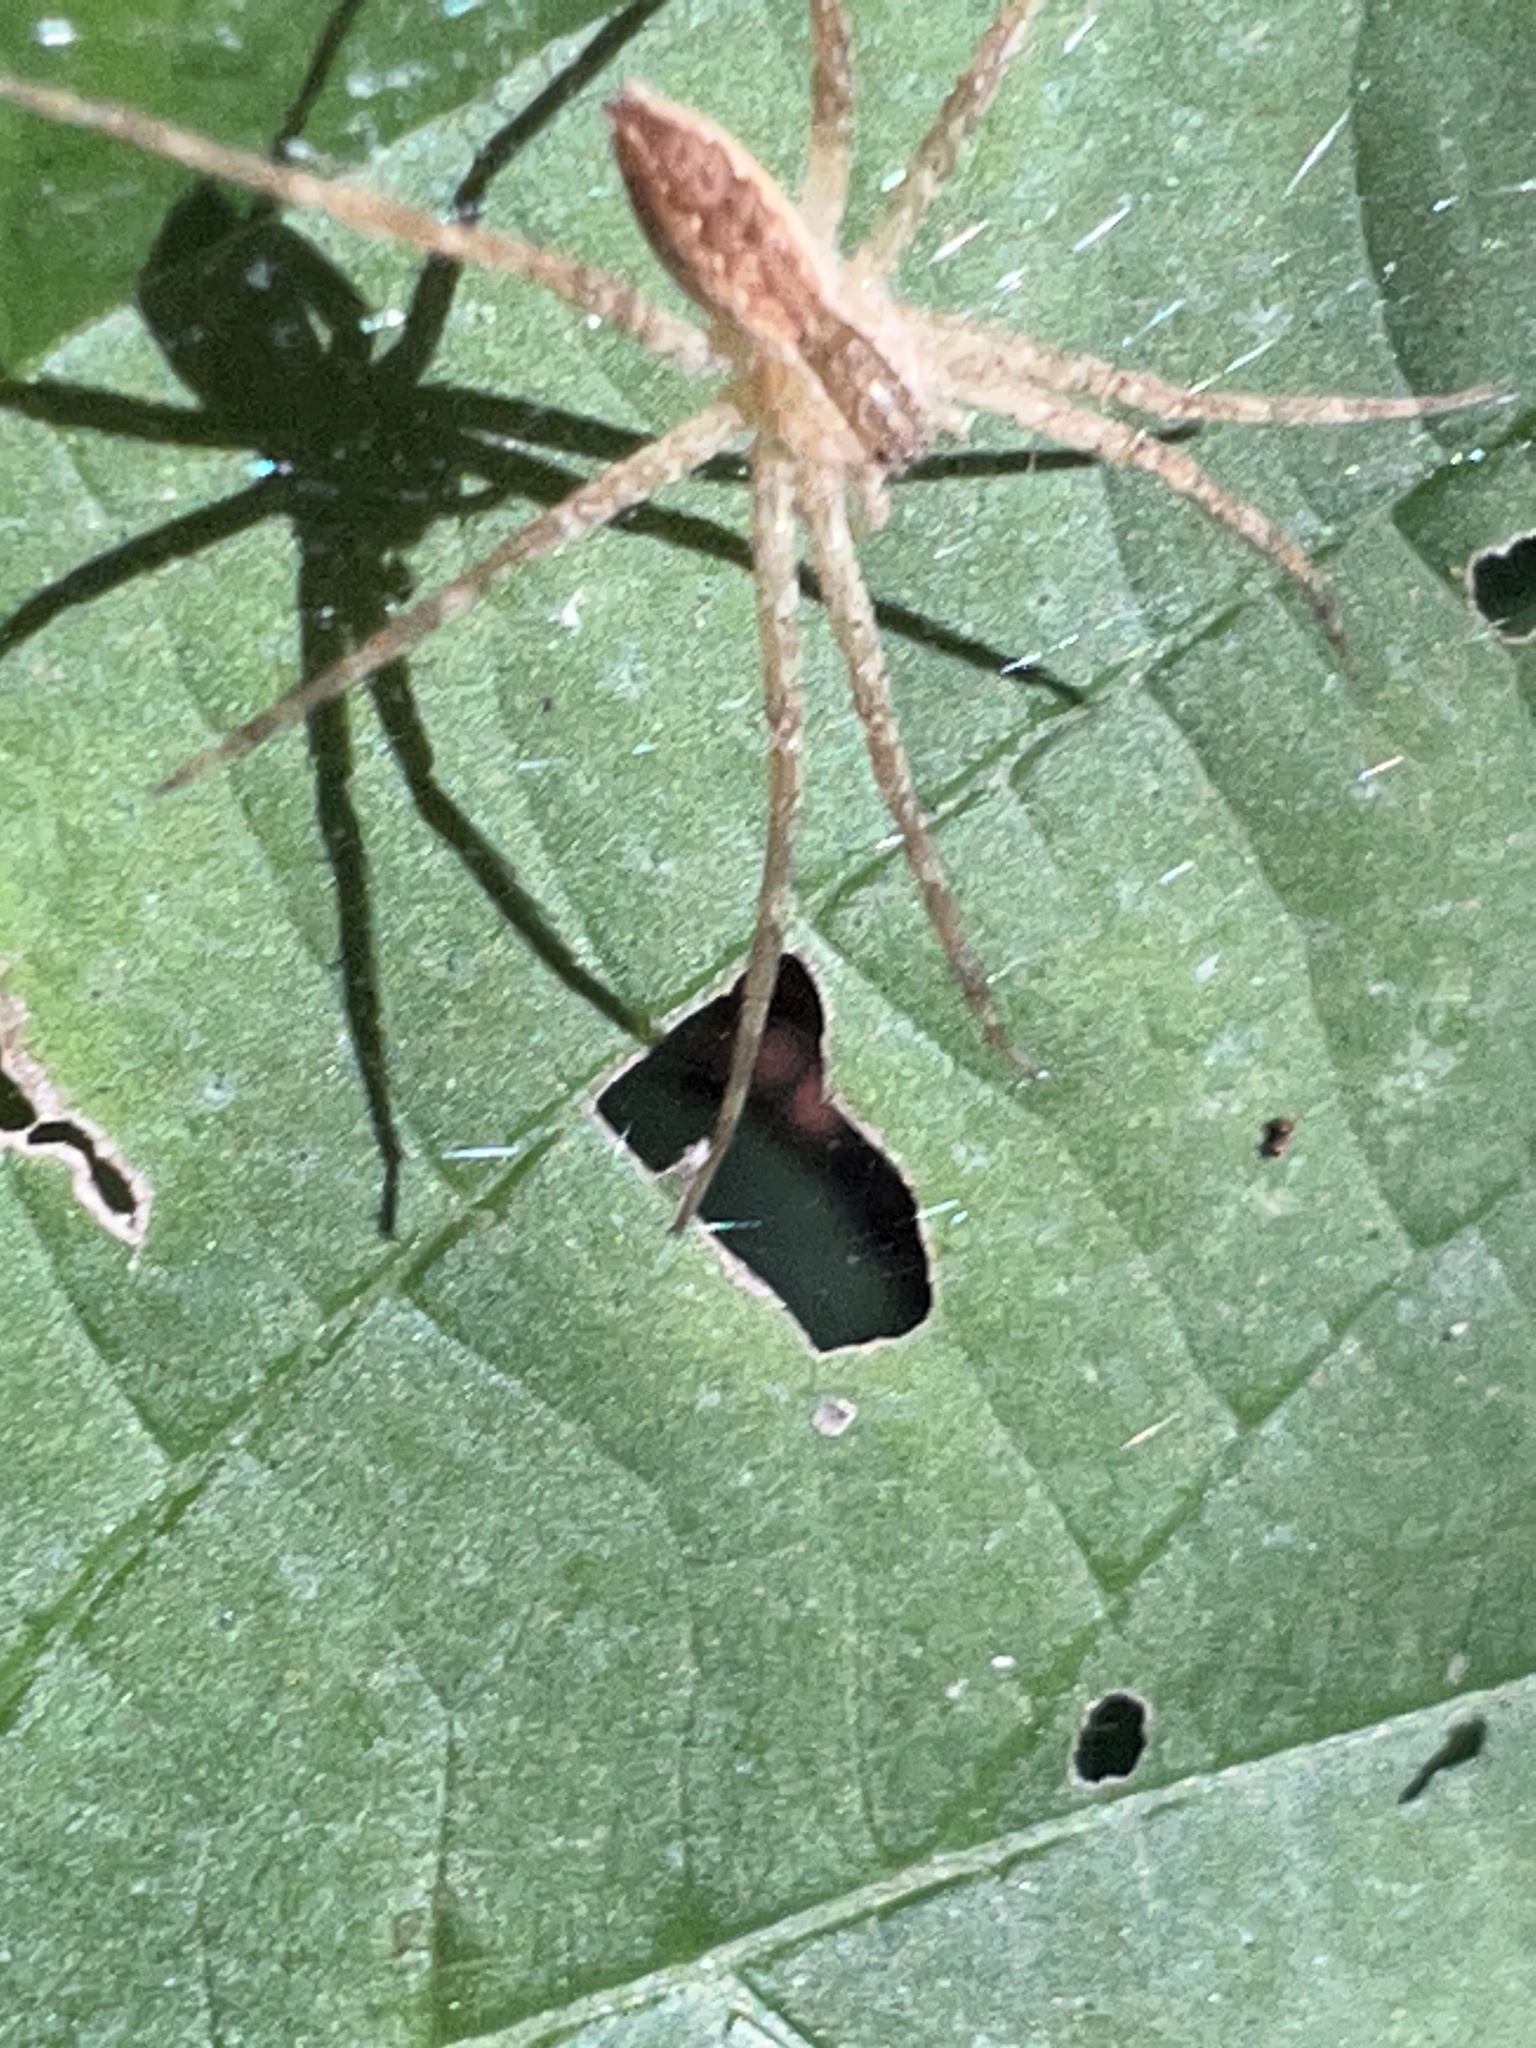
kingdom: Animalia
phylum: Arthropoda
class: Arachnida
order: Araneae
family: Pisauridae
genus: Pisaurina
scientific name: Pisaurina mira
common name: American nursery web spider
